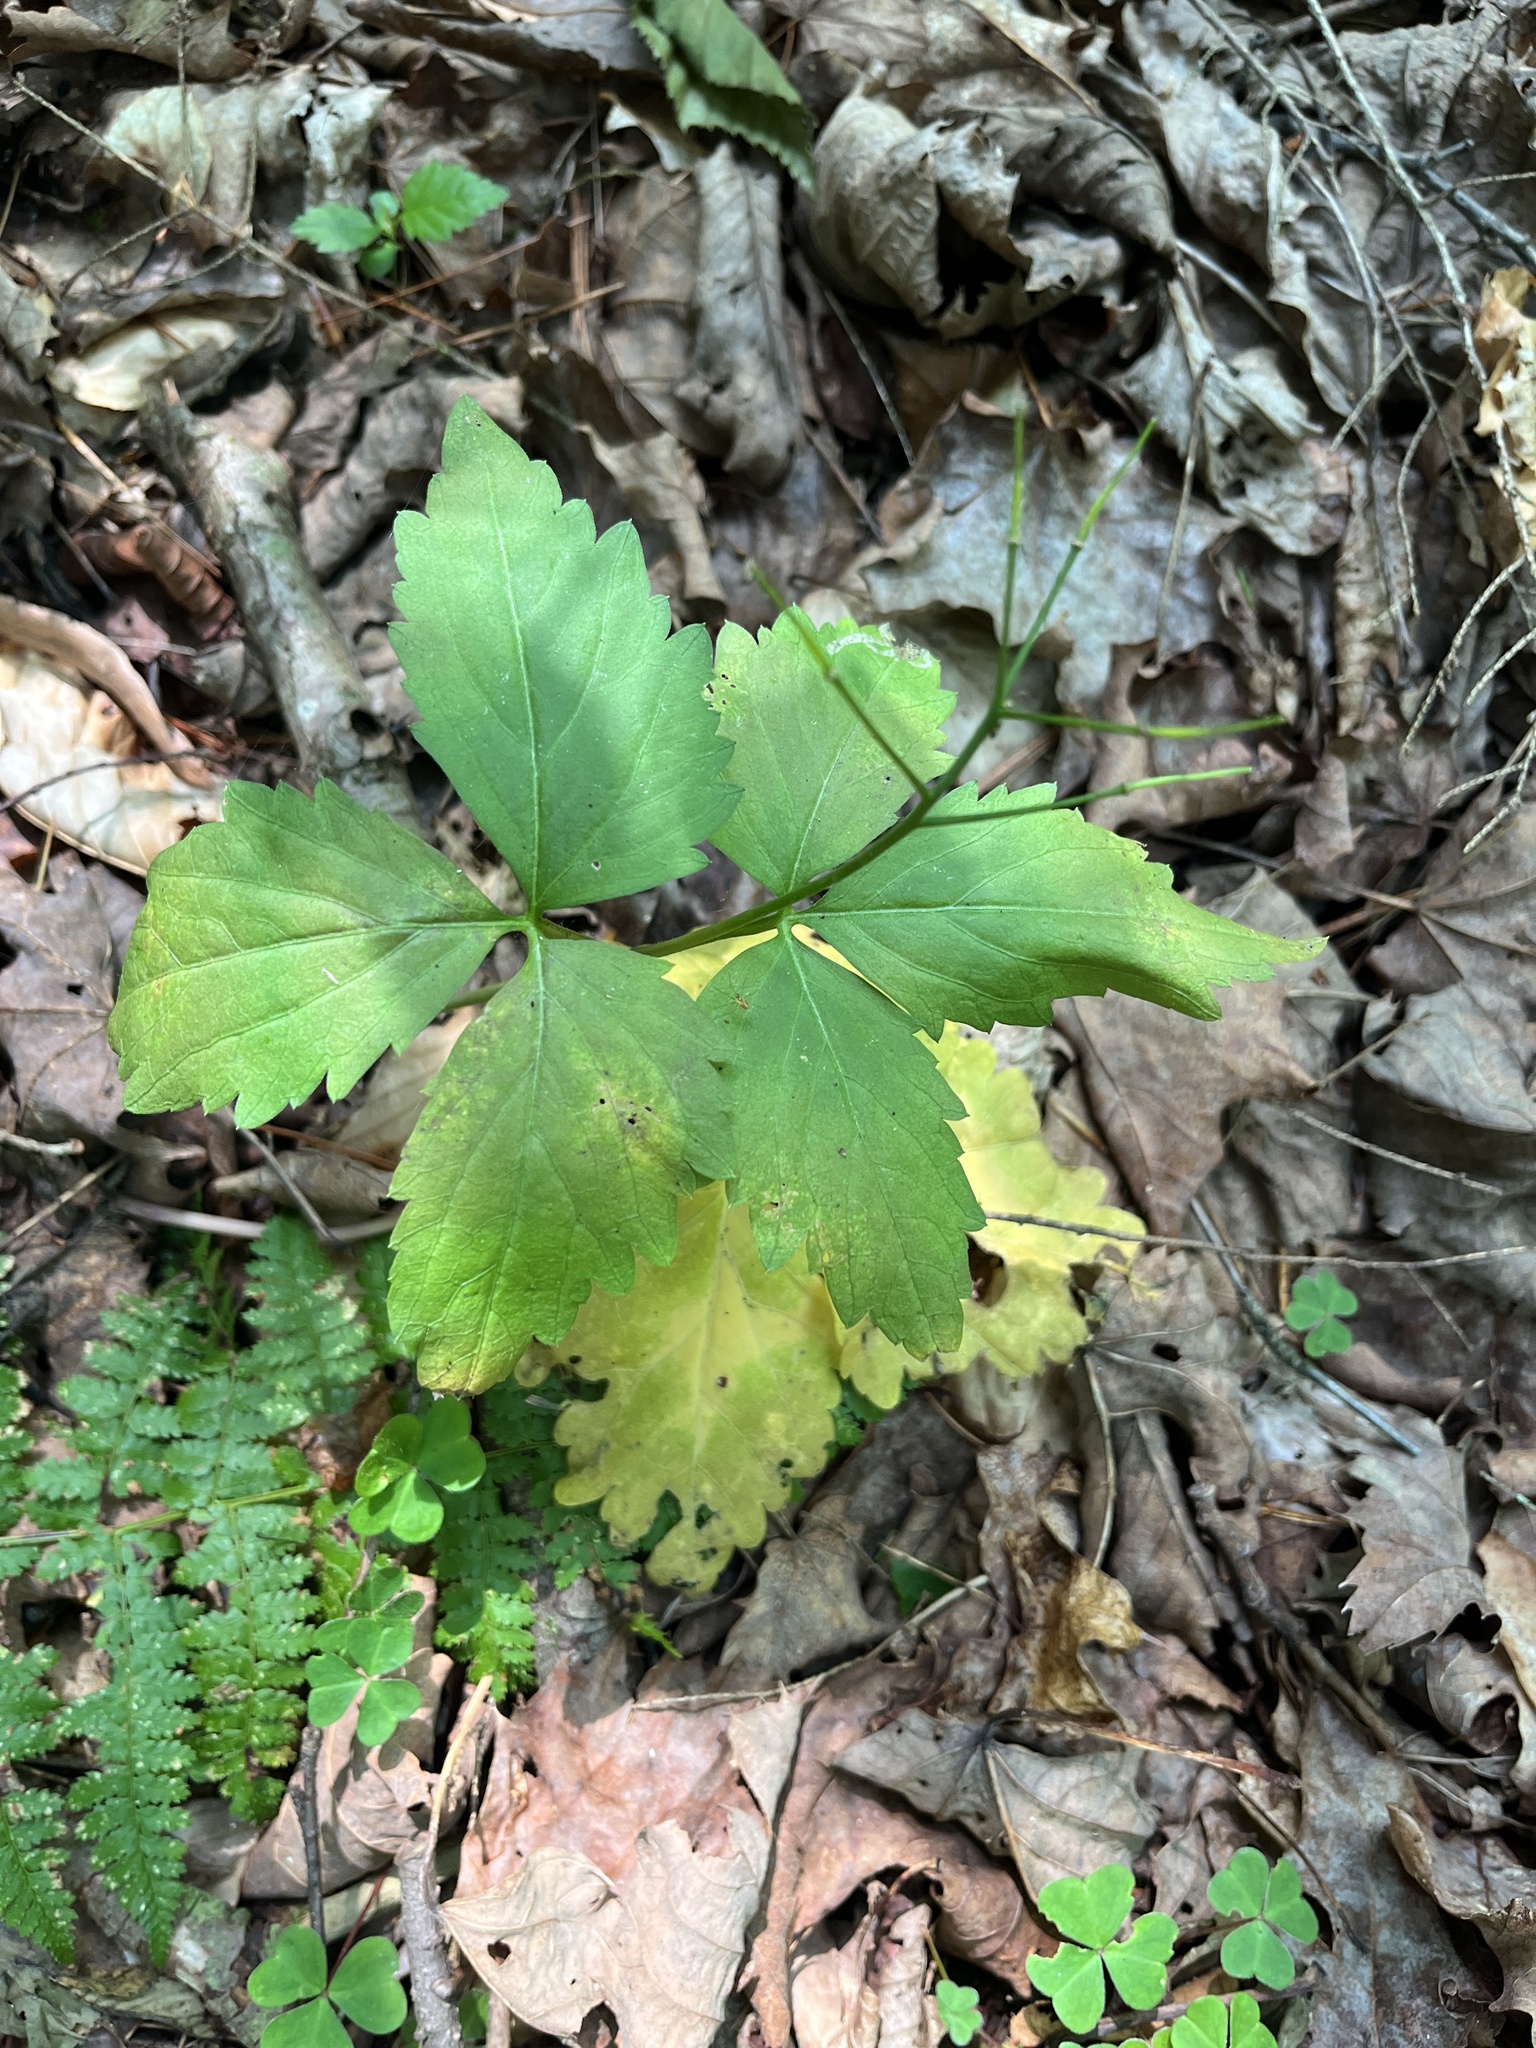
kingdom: Plantae
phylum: Tracheophyta
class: Magnoliopsida
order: Brassicales
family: Brassicaceae
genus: Cardamine
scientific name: Cardamine diphylla
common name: Broad-leaved toothwort
